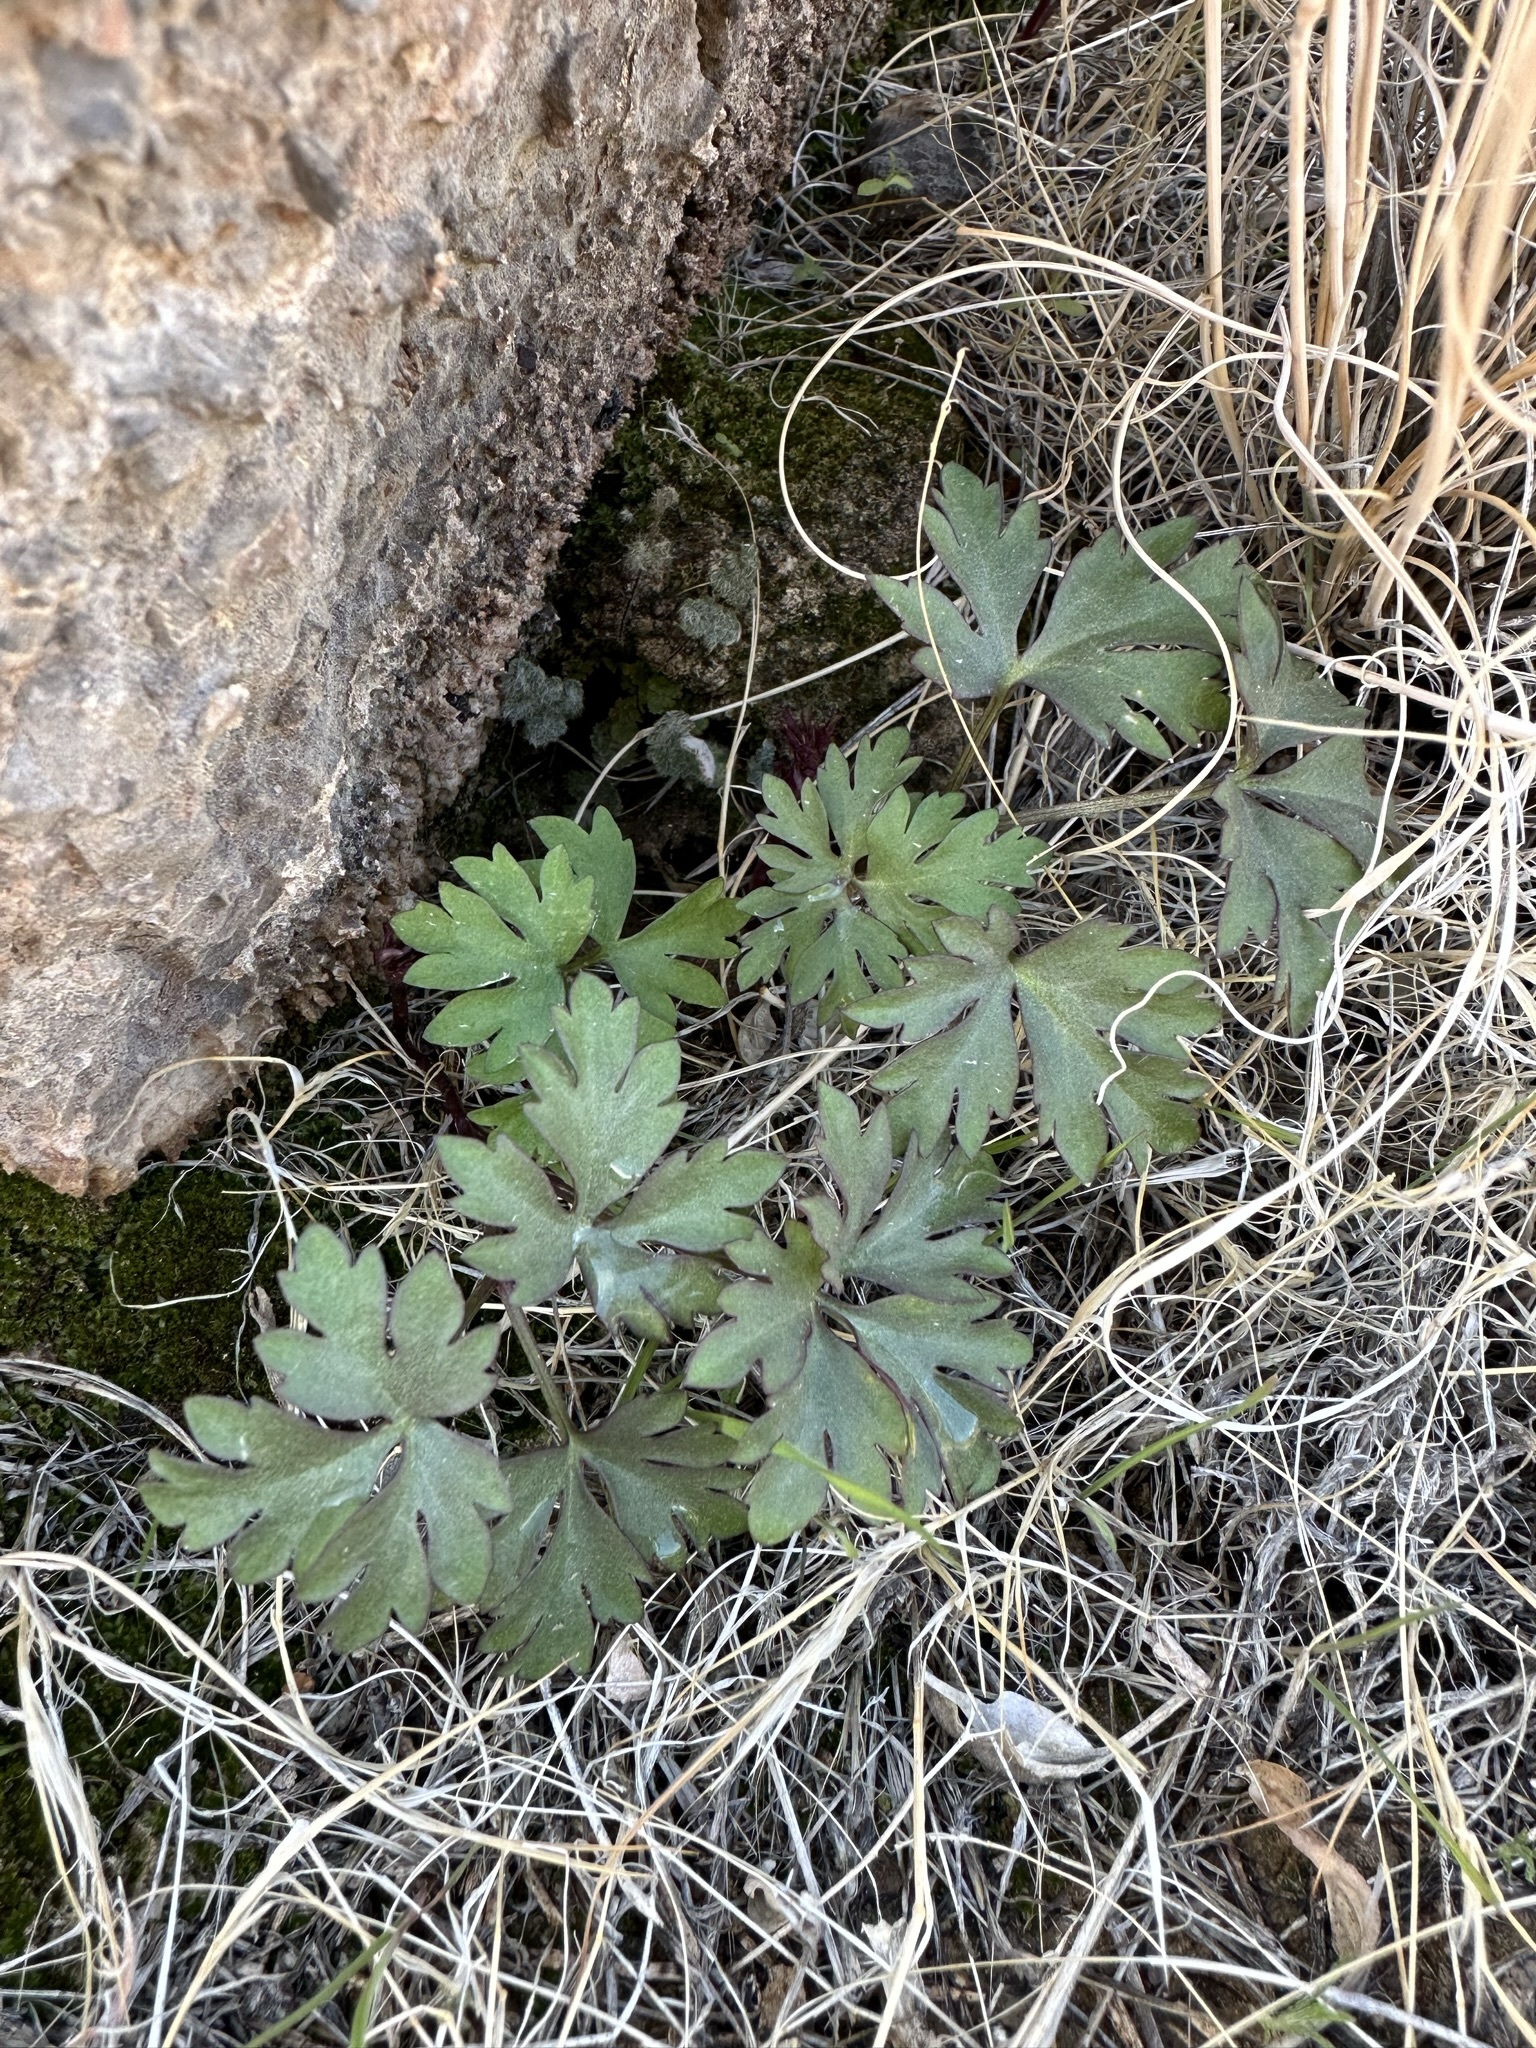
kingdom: Plantae
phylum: Tracheophyta
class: Magnoliopsida
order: Ranunculales
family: Ranunculaceae
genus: Anemone
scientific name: Anemone tuberosa
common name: Desert anemone
